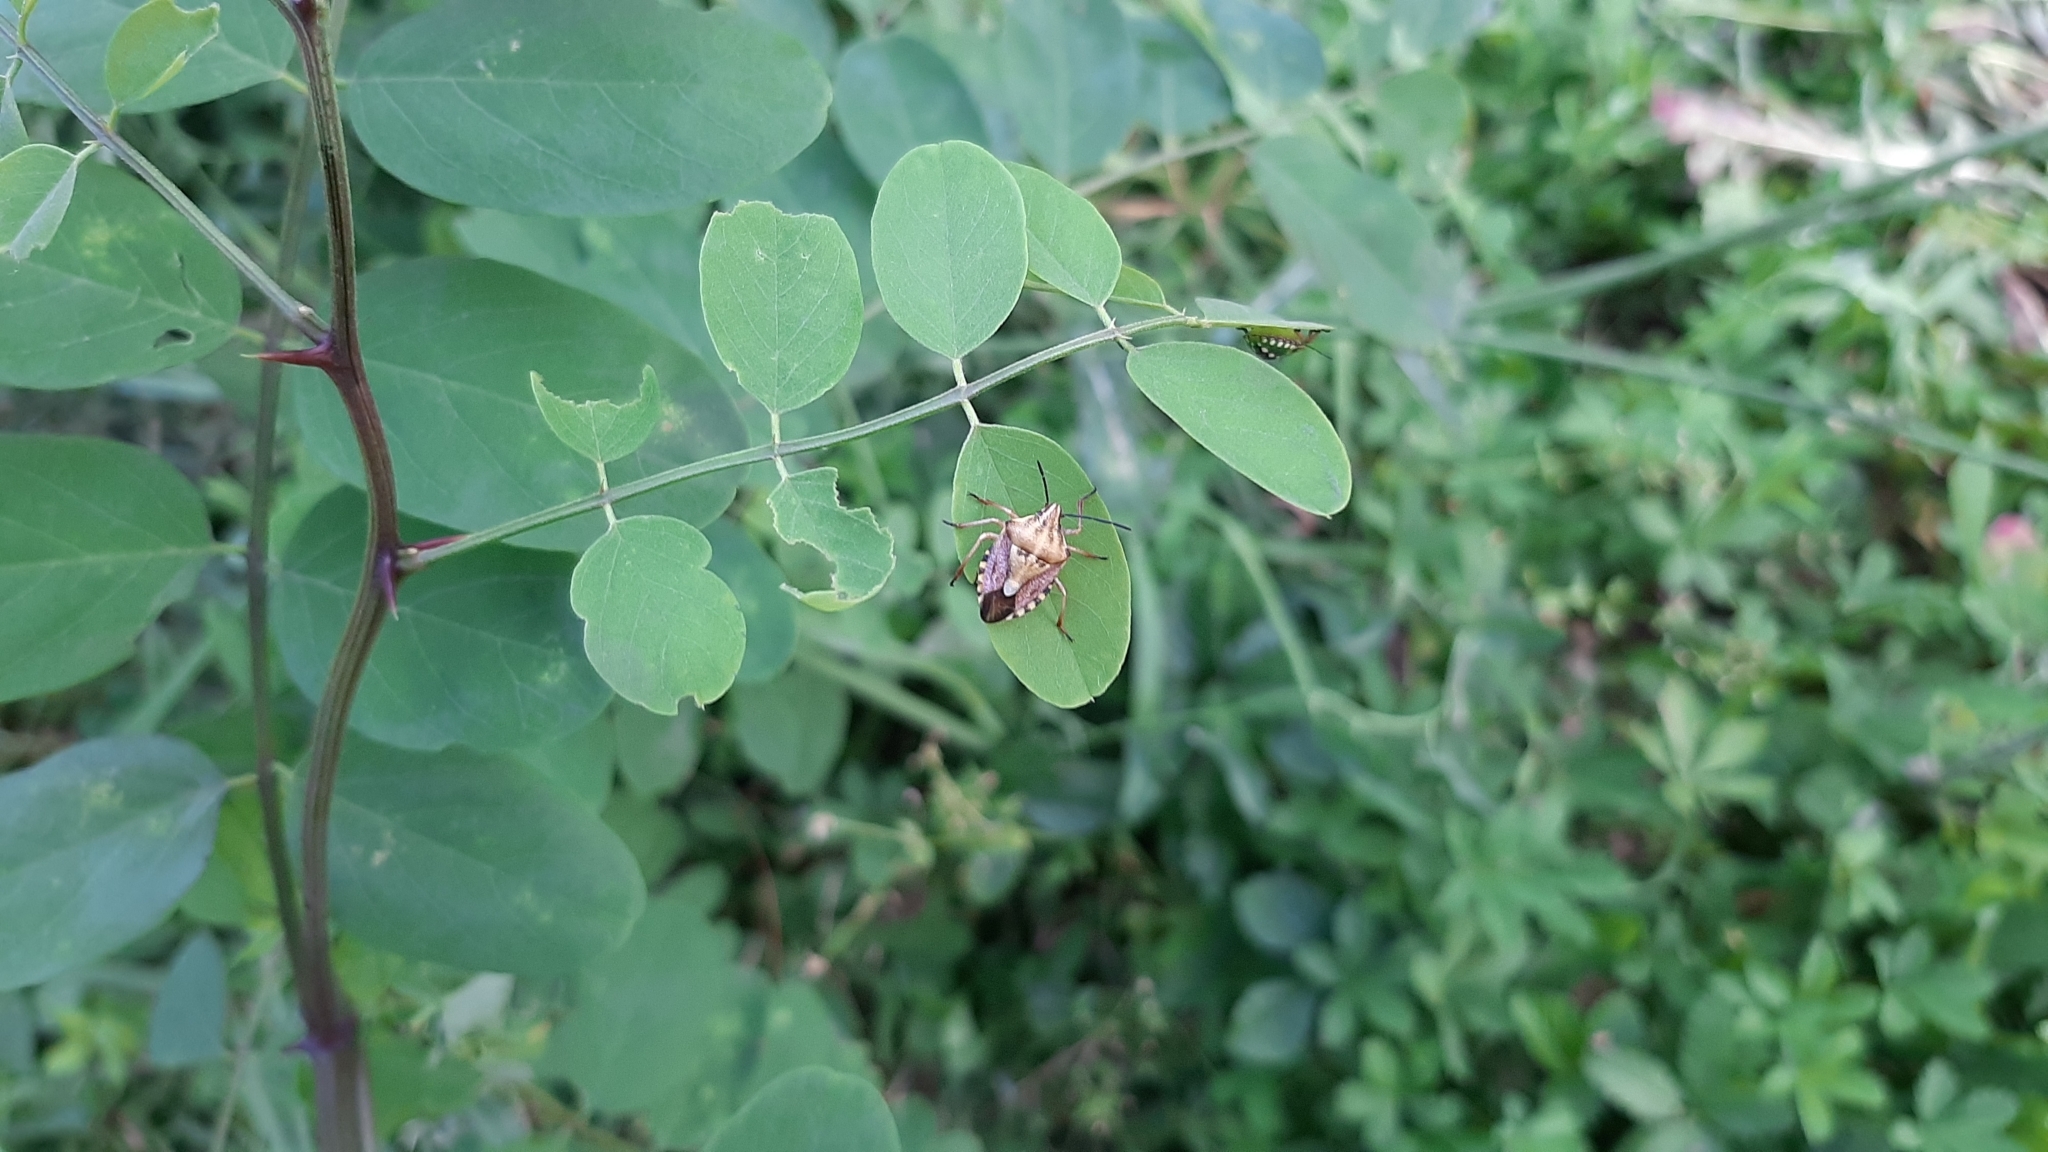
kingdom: Animalia
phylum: Arthropoda
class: Insecta
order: Hemiptera
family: Pentatomidae
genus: Carpocoris
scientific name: Carpocoris purpureipennis
